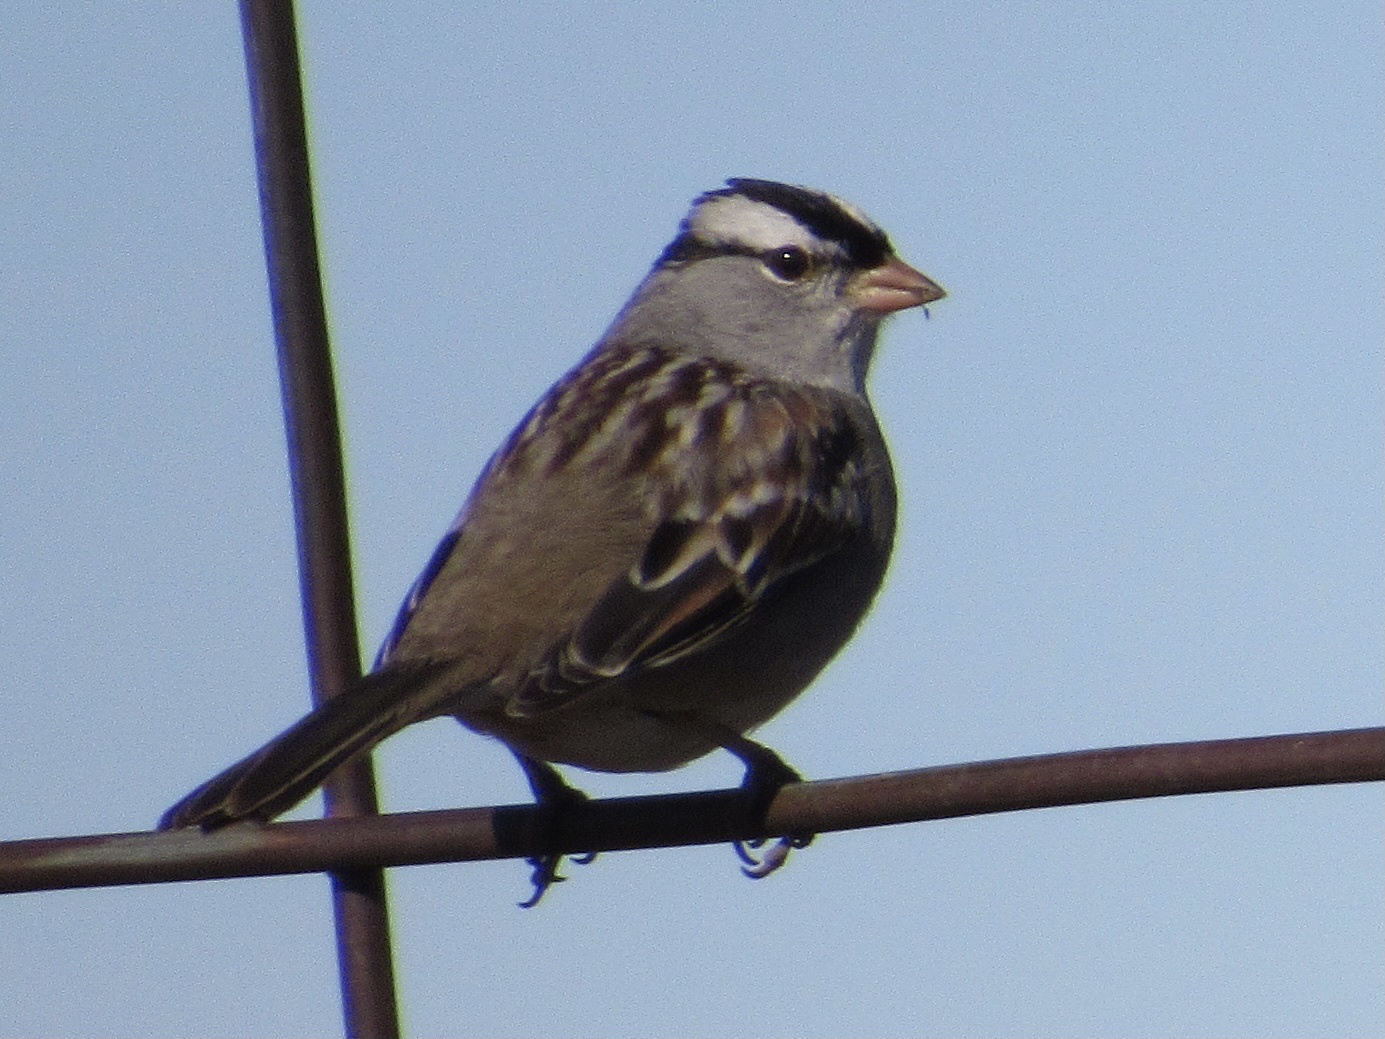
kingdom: Animalia
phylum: Chordata
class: Aves
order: Passeriformes
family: Passerellidae
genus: Zonotrichia
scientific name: Zonotrichia leucophrys
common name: White-crowned sparrow
